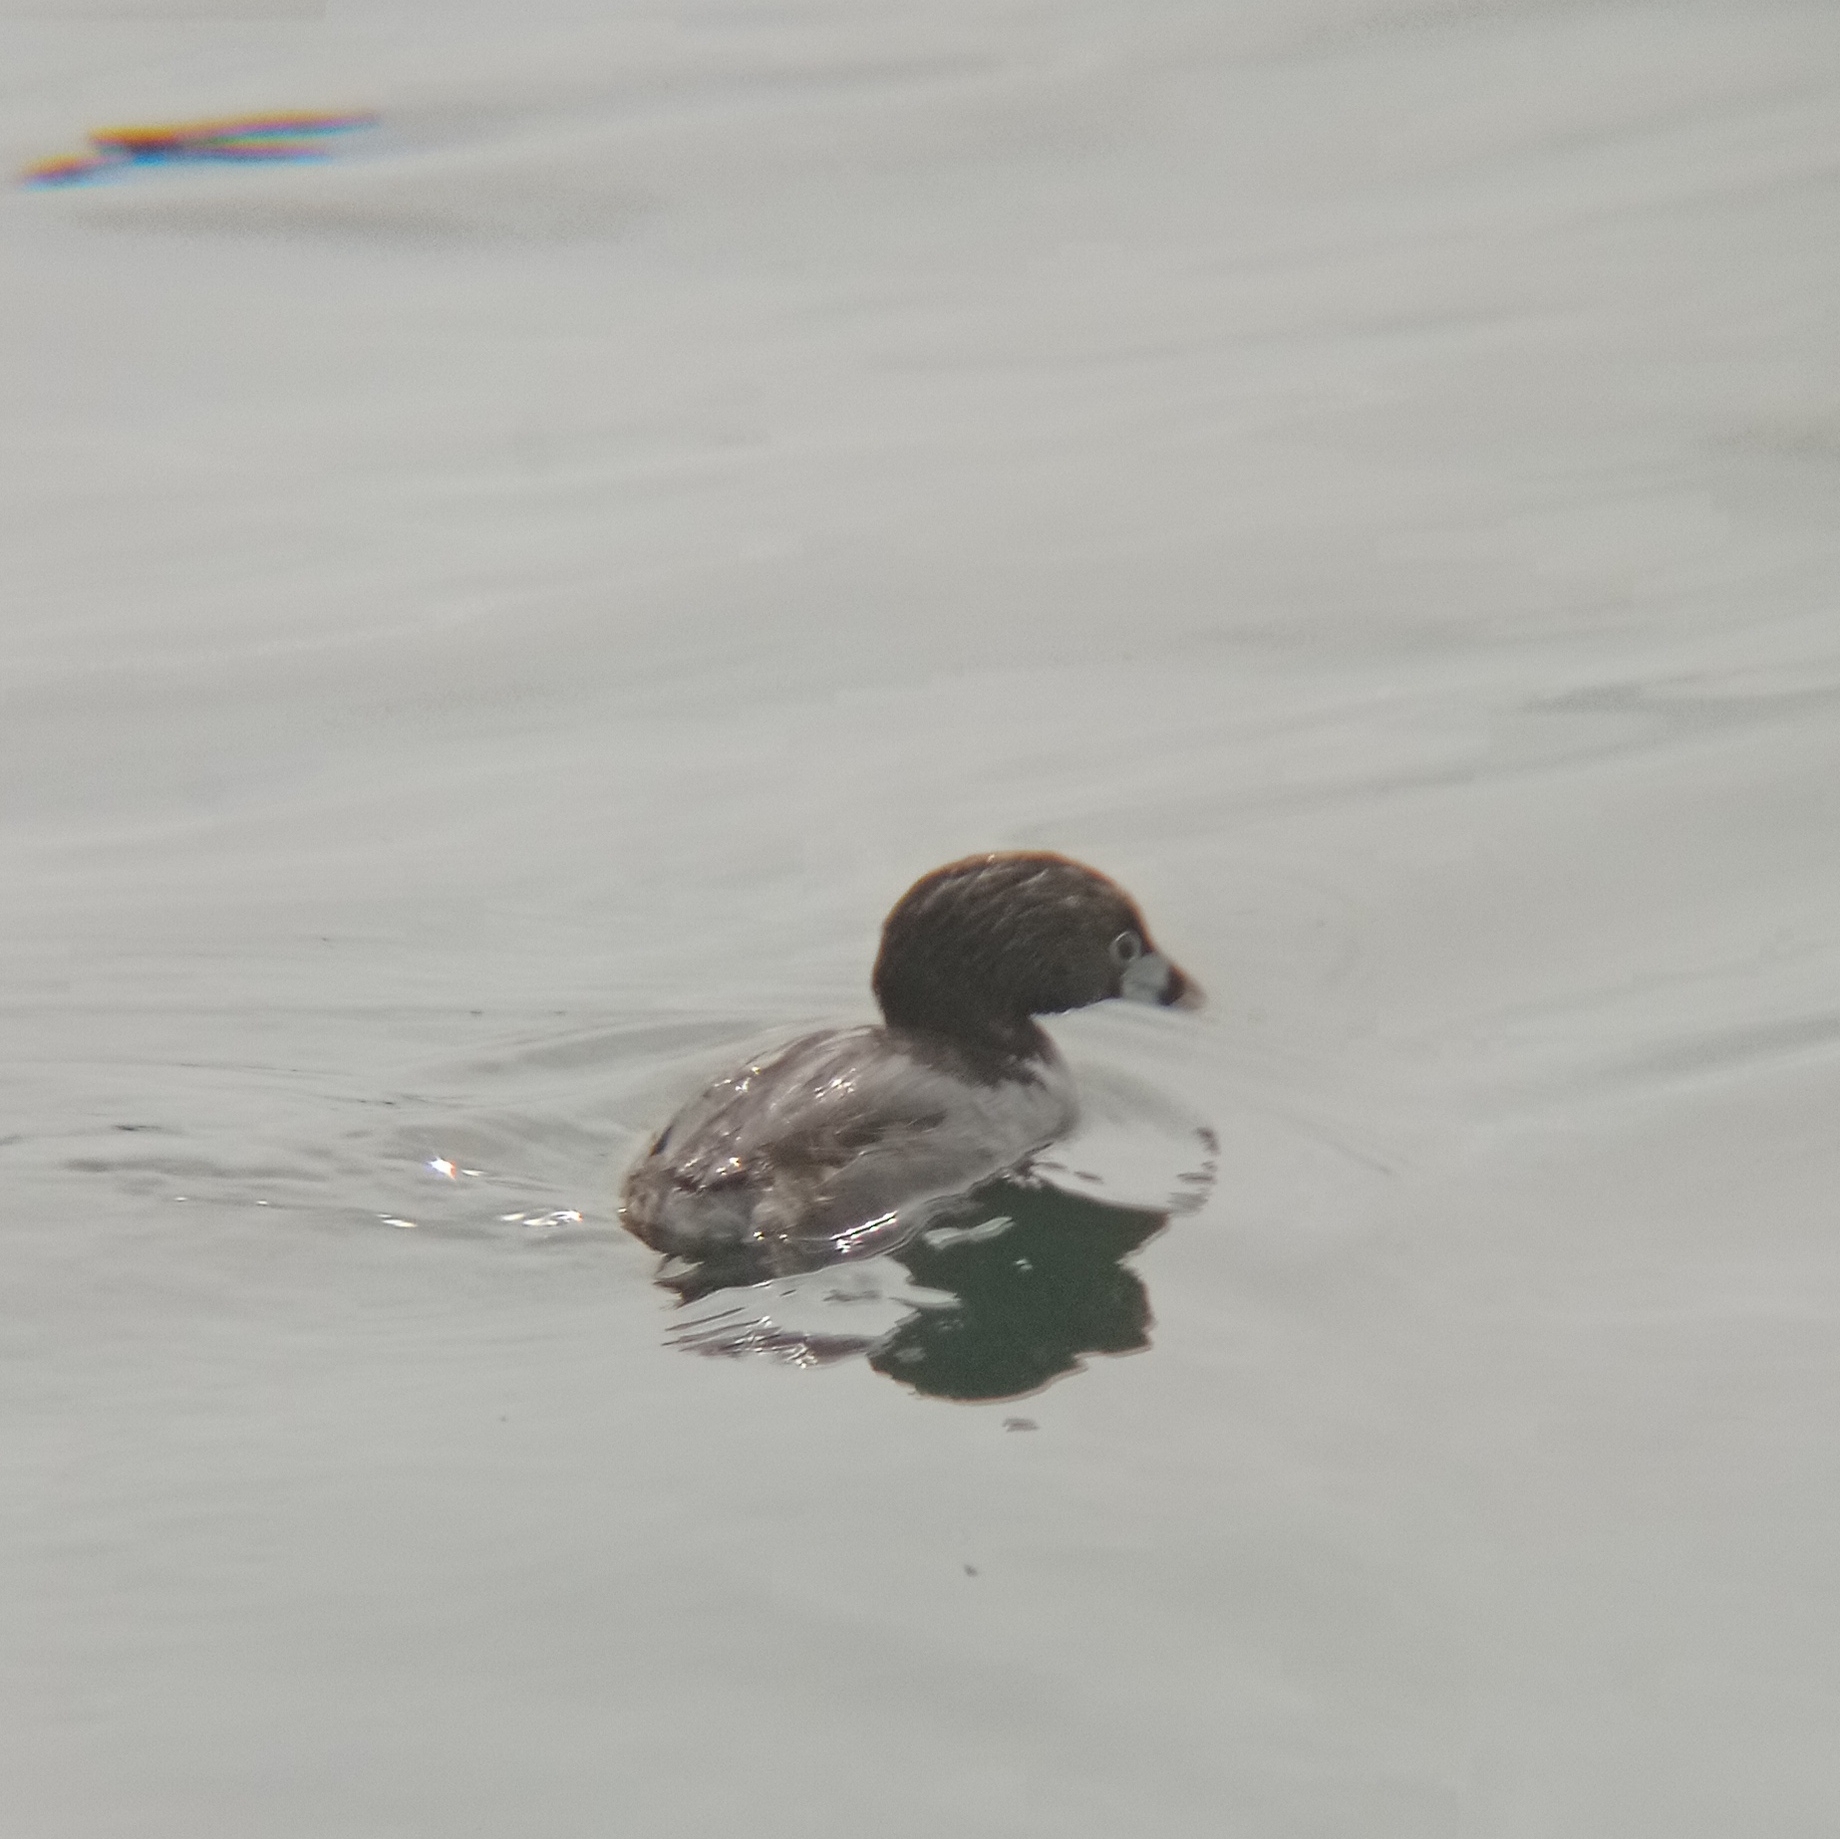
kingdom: Animalia
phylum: Chordata
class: Aves
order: Podicipediformes
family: Podicipedidae
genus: Podilymbus
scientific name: Podilymbus podiceps
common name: Pied-billed grebe
